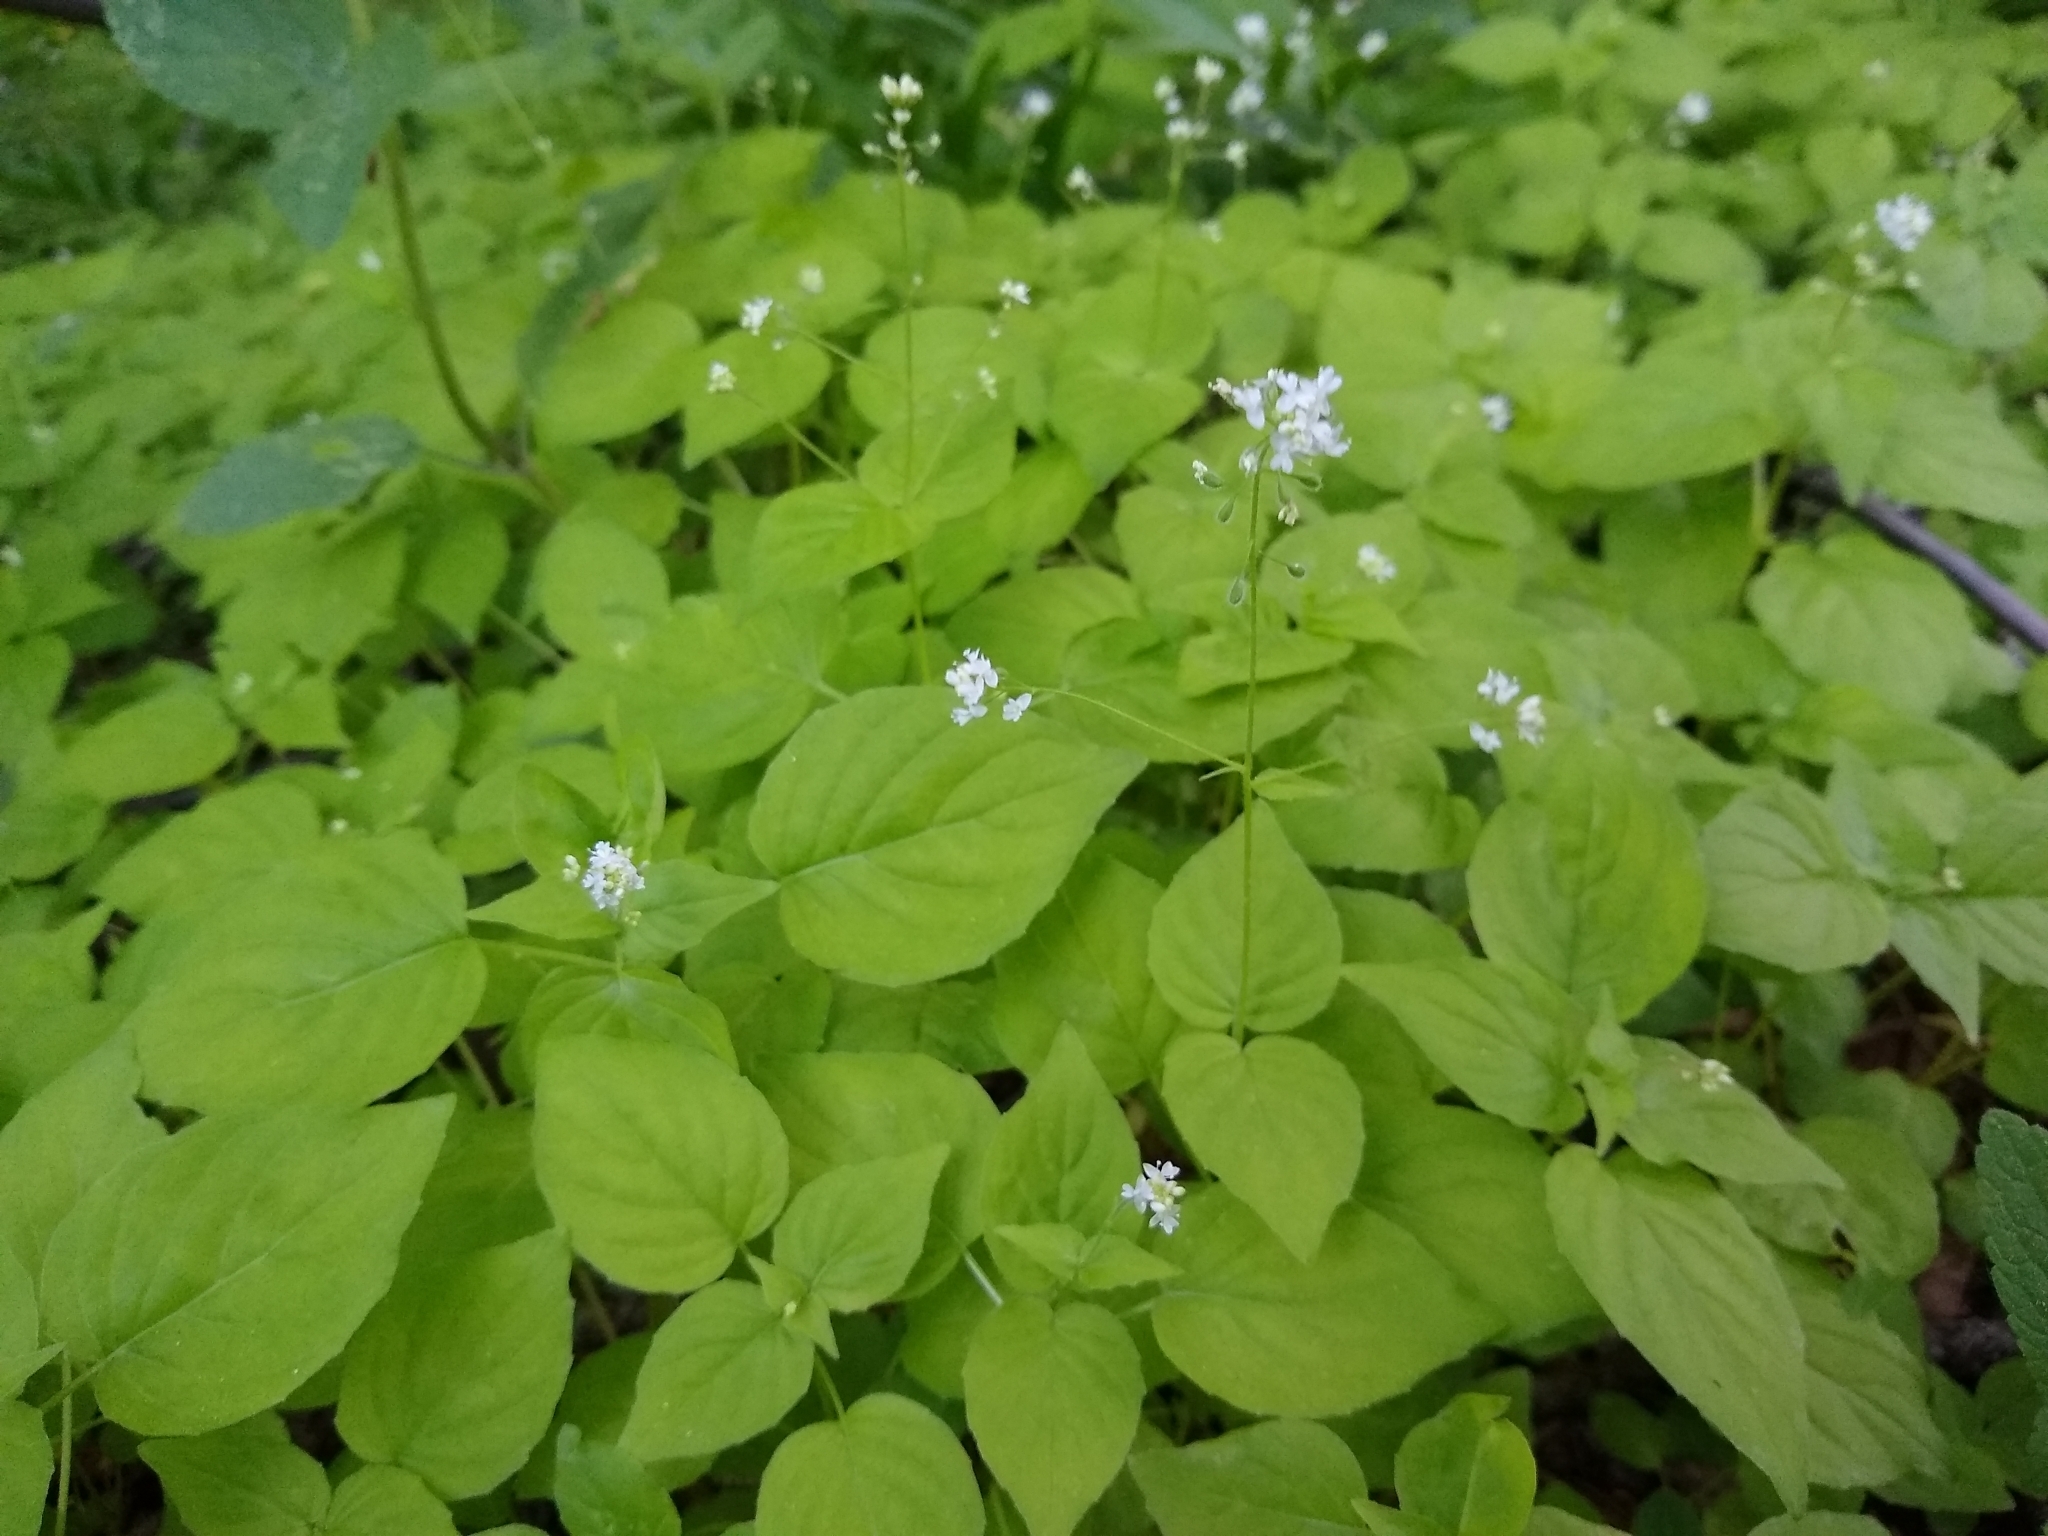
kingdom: Plantae
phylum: Tracheophyta
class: Magnoliopsida
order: Myrtales
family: Onagraceae
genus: Circaea
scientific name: Circaea alpina
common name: Alpine enchanter's-nightshade
